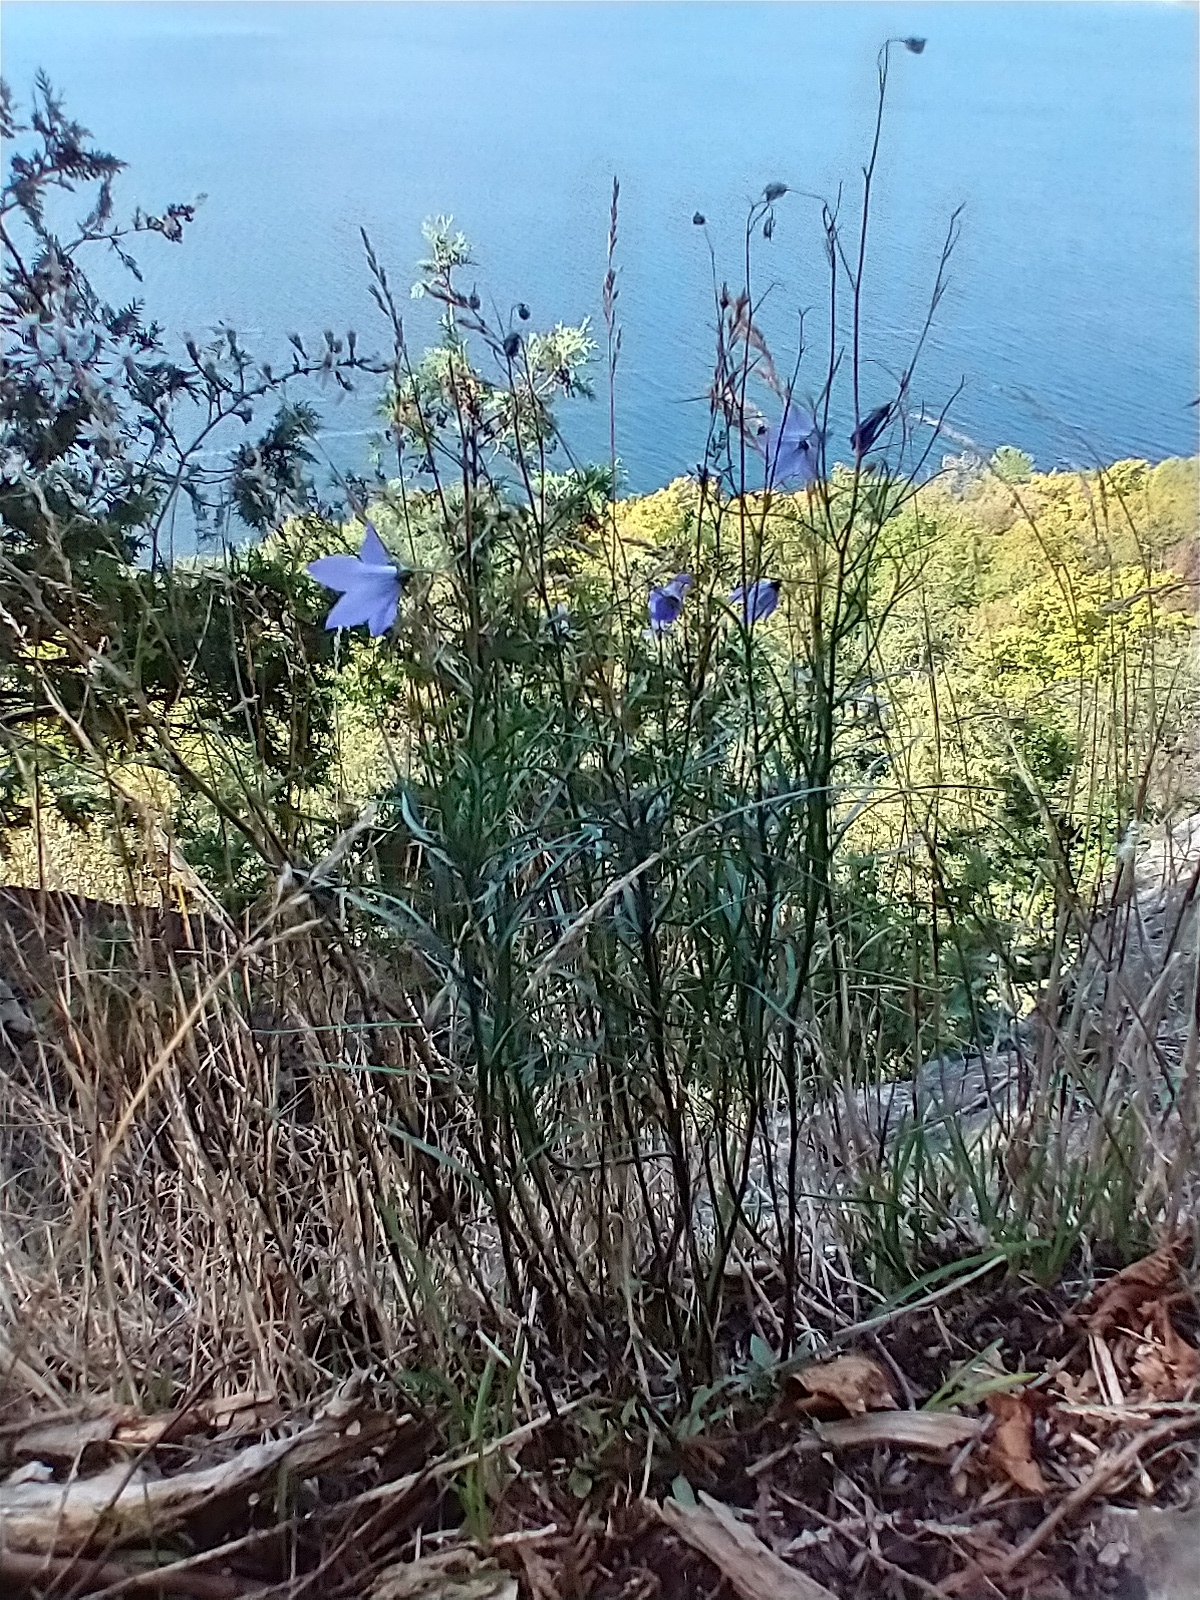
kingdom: Plantae
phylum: Tracheophyta
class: Magnoliopsida
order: Asterales
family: Campanulaceae
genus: Campanula
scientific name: Campanula intercedens
